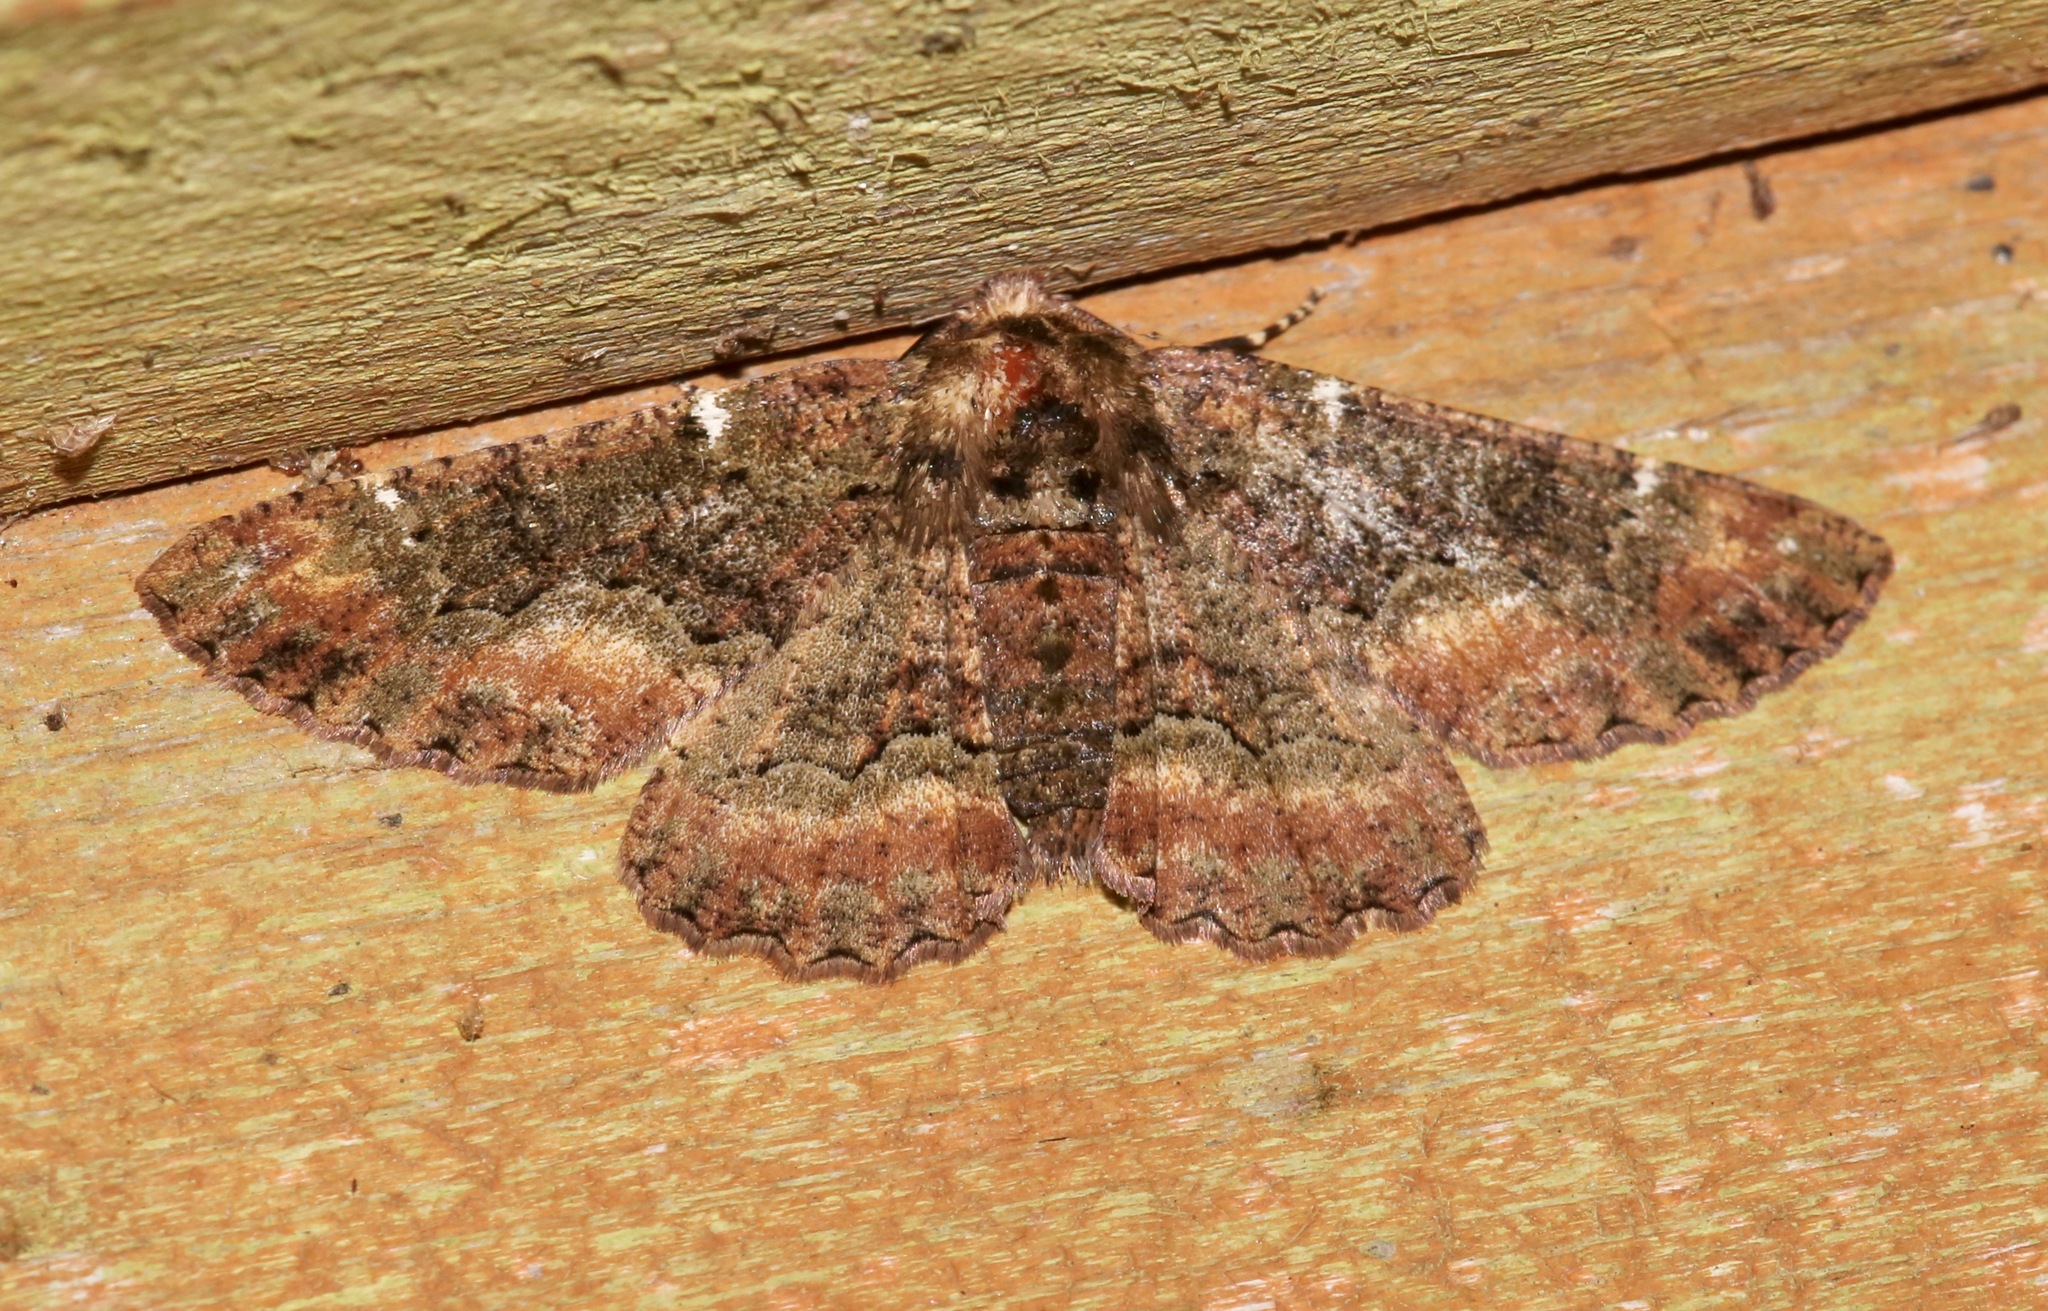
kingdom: Animalia
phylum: Arthropoda
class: Insecta
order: Lepidoptera
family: Geometridae
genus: Phaeoura
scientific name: Phaeoura quernaria
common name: Oak beauty
